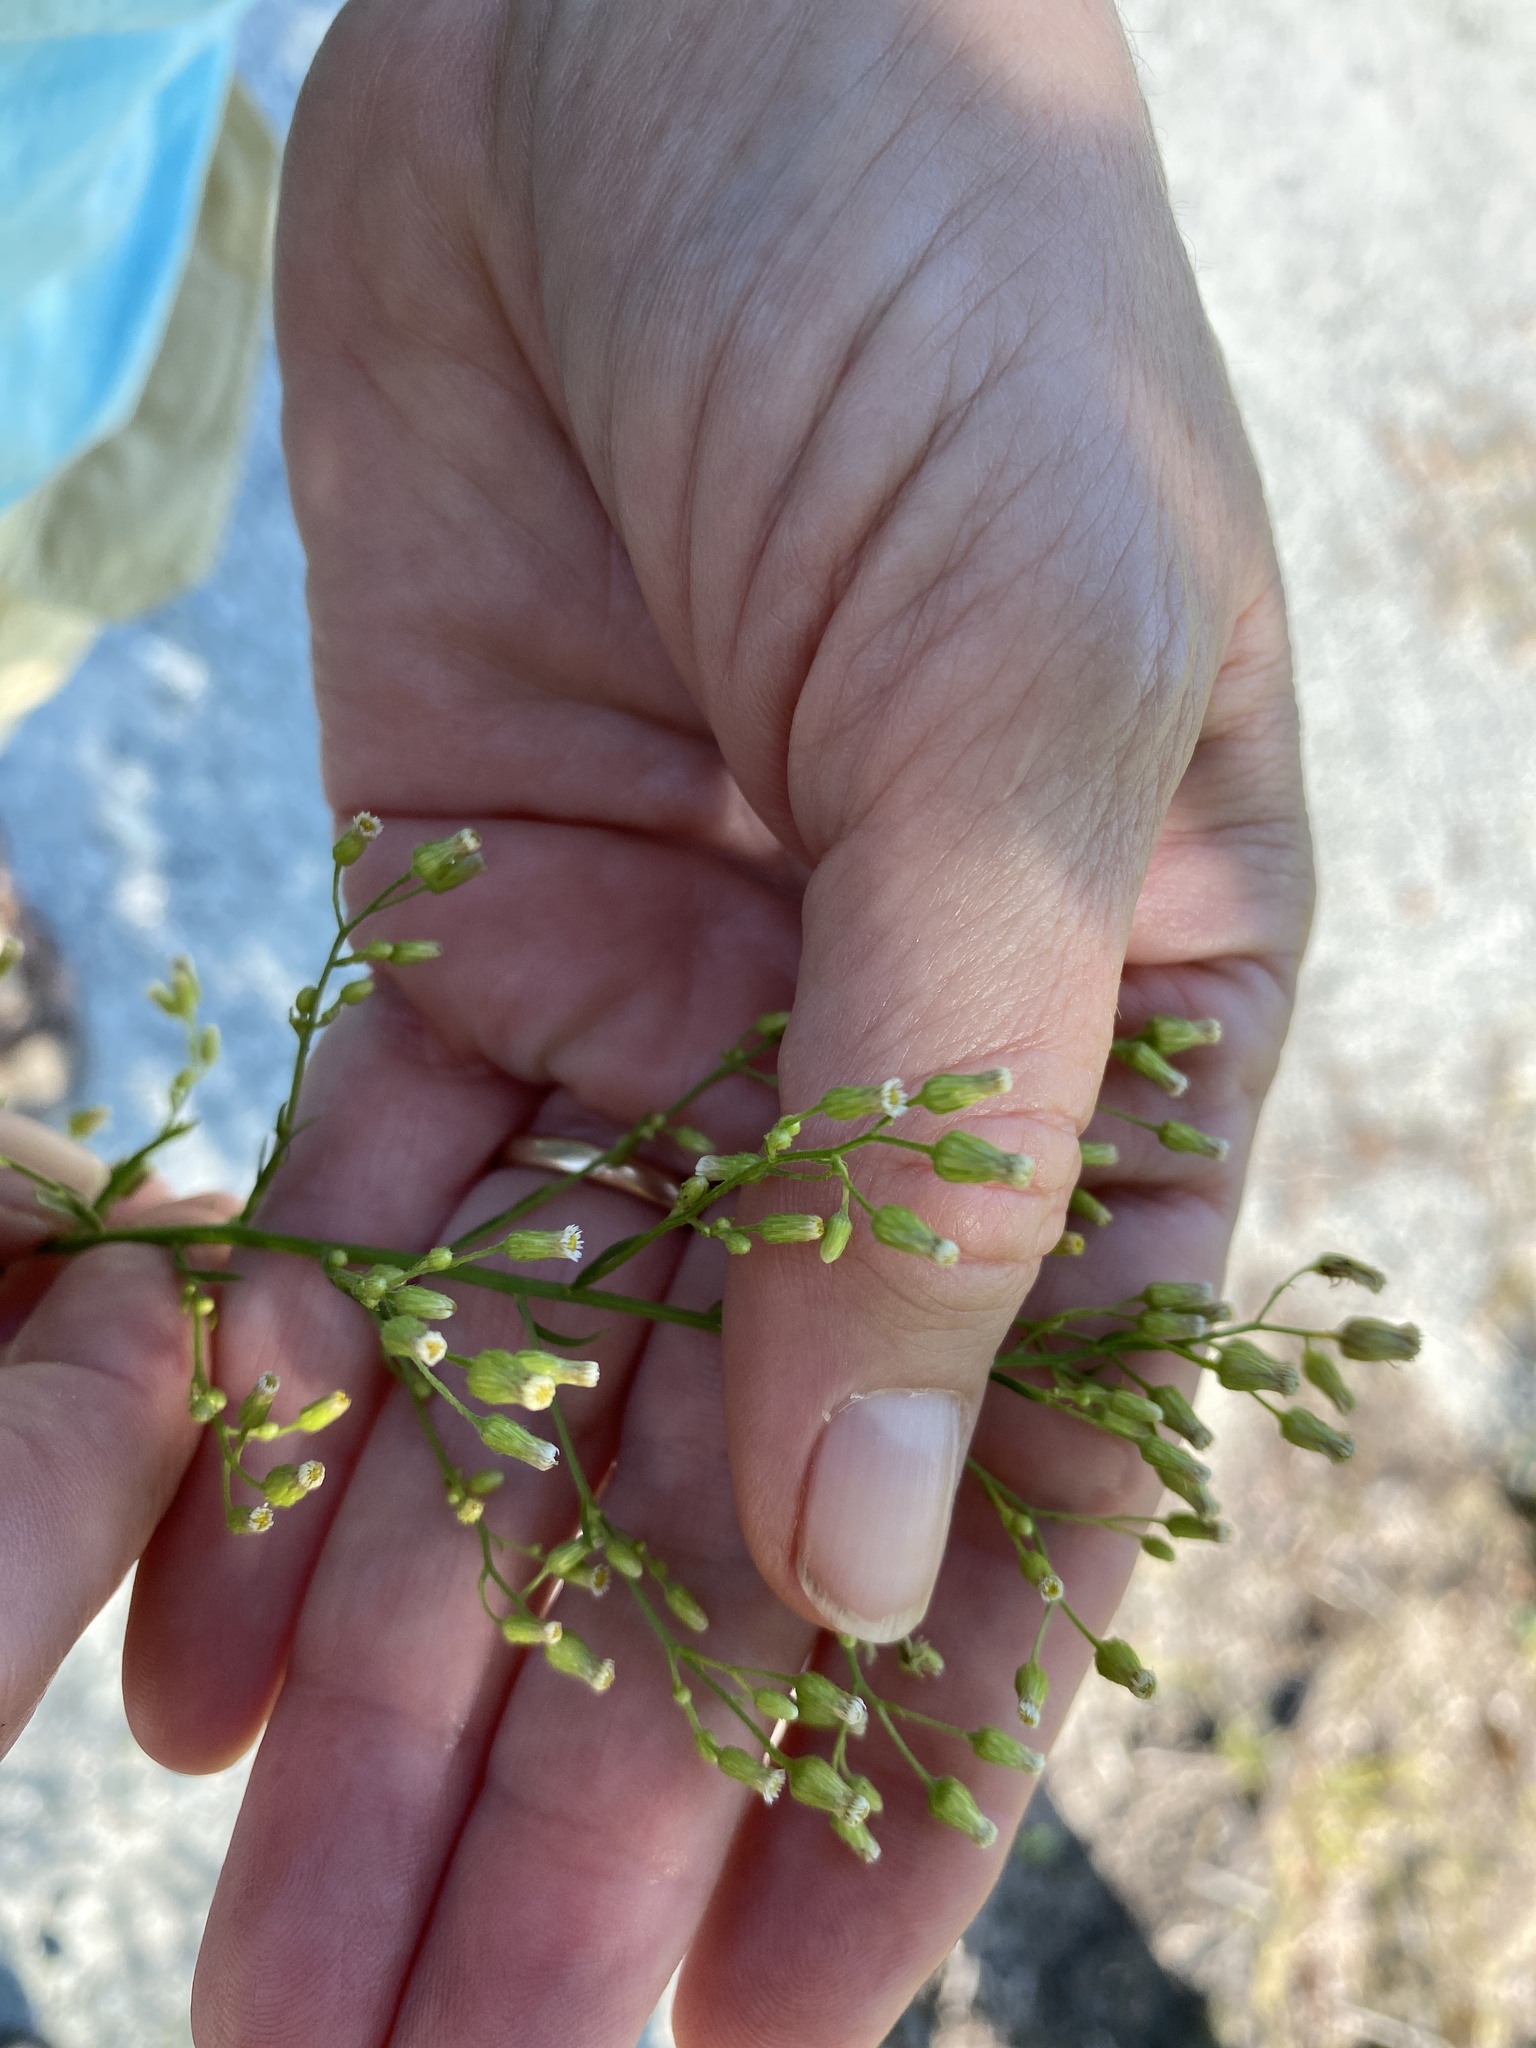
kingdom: Plantae
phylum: Tracheophyta
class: Magnoliopsida
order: Asterales
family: Asteraceae
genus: Erigeron
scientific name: Erigeron canadensis
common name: Canadian fleabane
